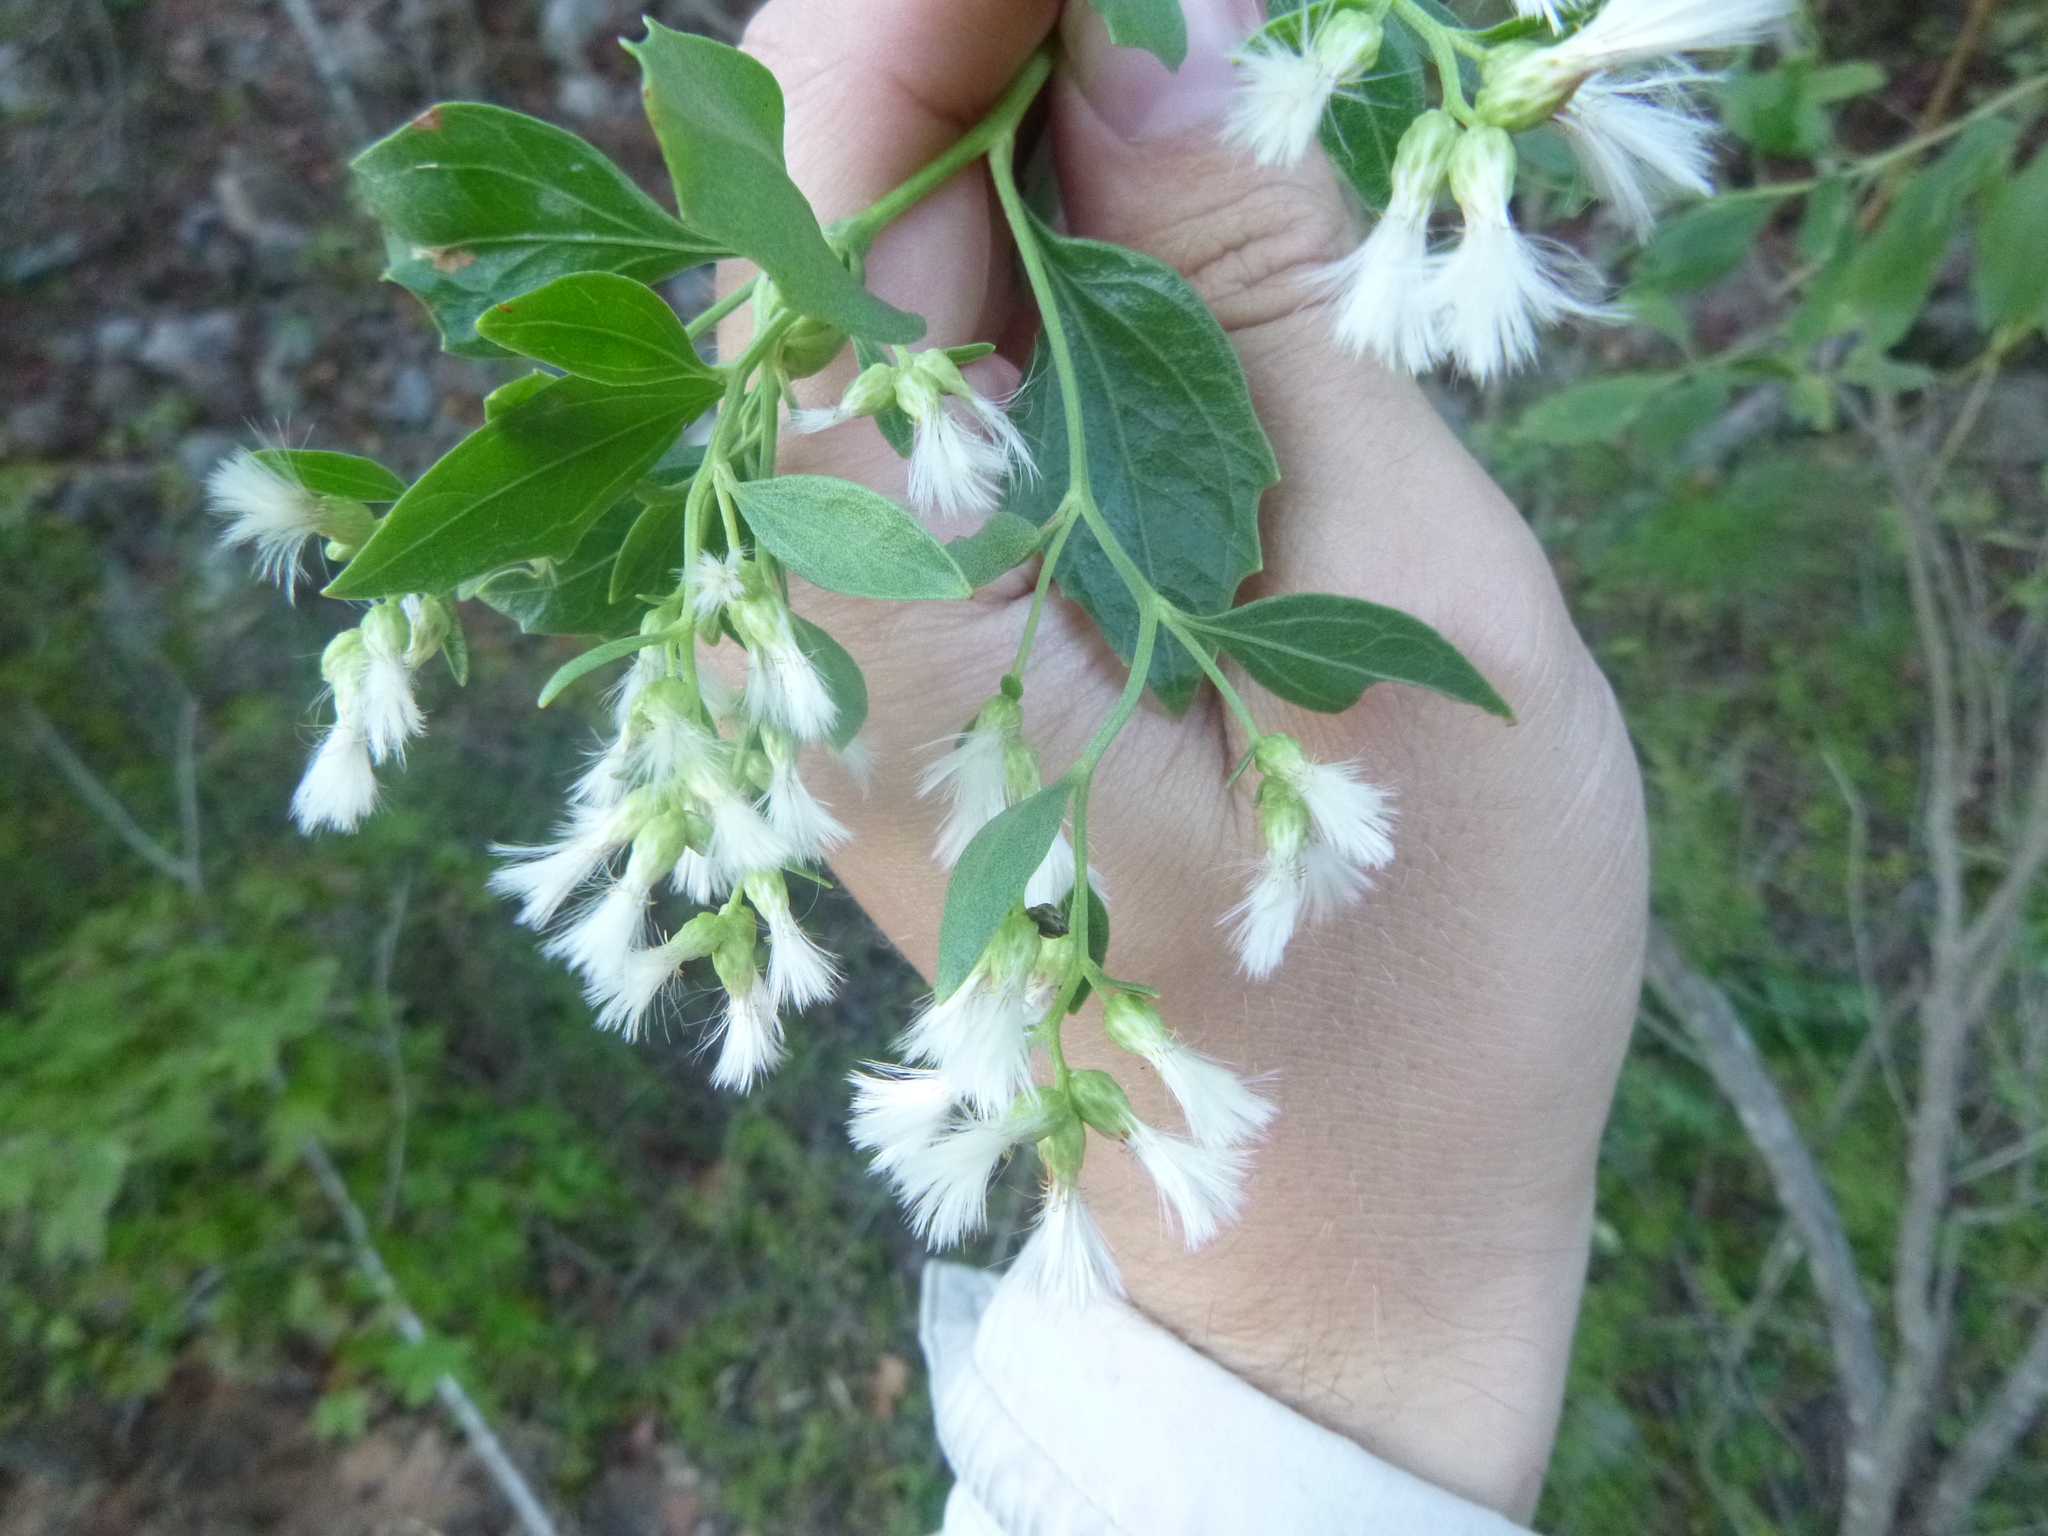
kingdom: Plantae
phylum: Tracheophyta
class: Magnoliopsida
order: Asterales
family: Asteraceae
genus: Baccharis
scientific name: Baccharis halimifolia
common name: Eastern baccharis
